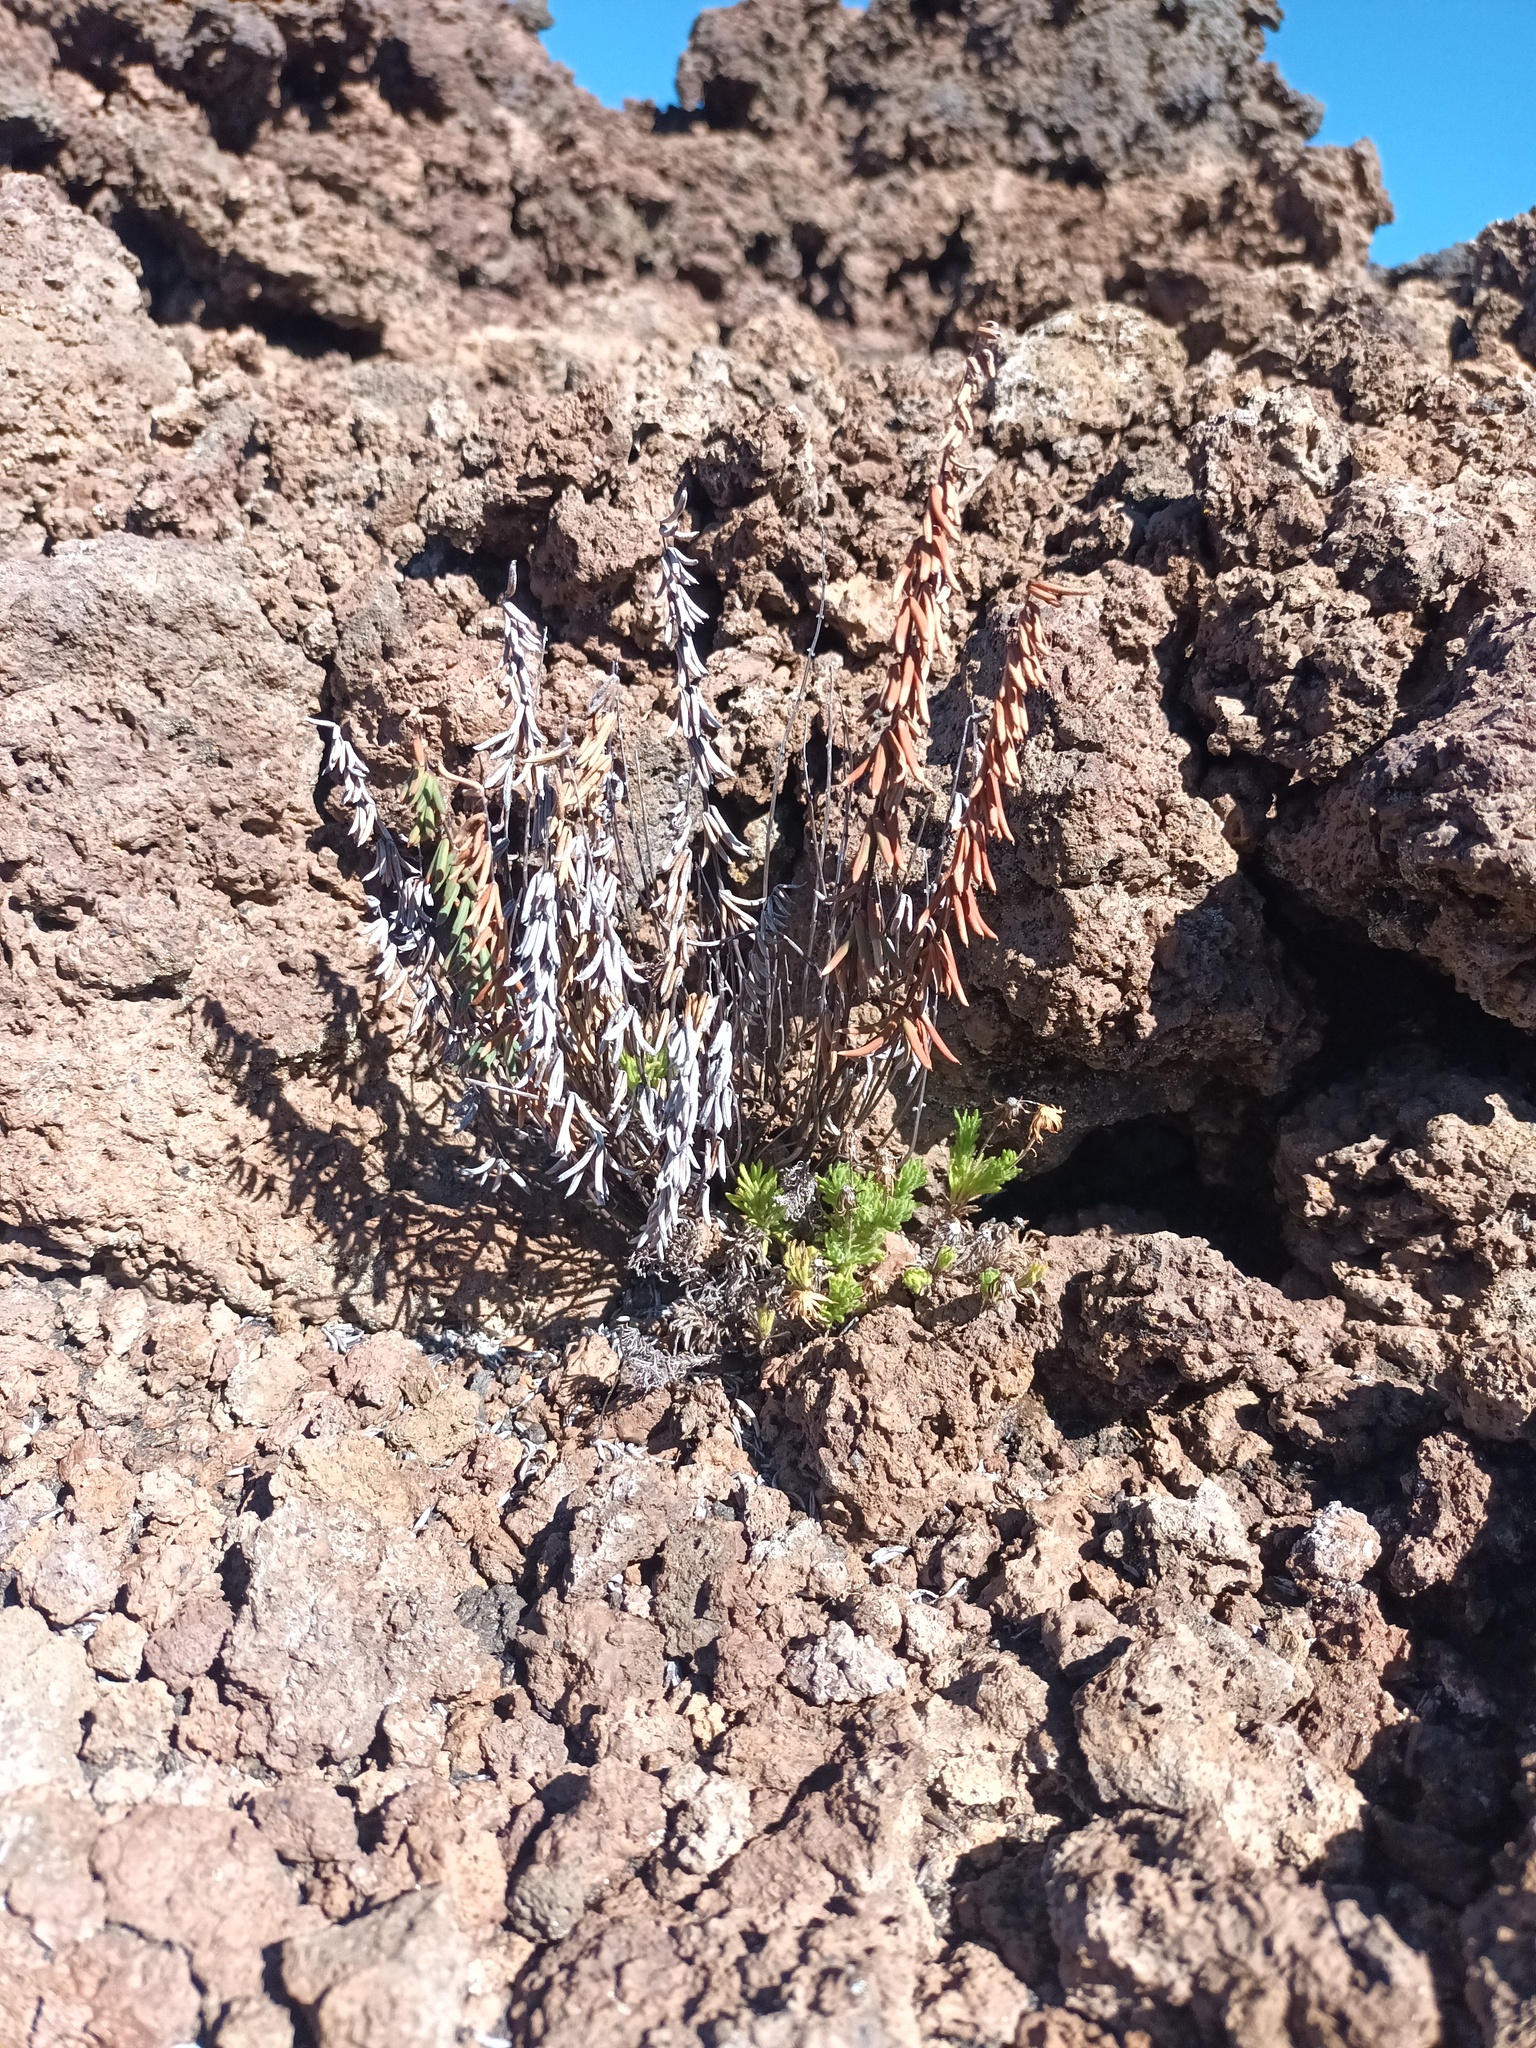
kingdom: Plantae
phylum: Tracheophyta
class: Polypodiopsida
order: Polypodiales
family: Pteridaceae
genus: Pellaea
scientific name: Pellaea ternifolia
